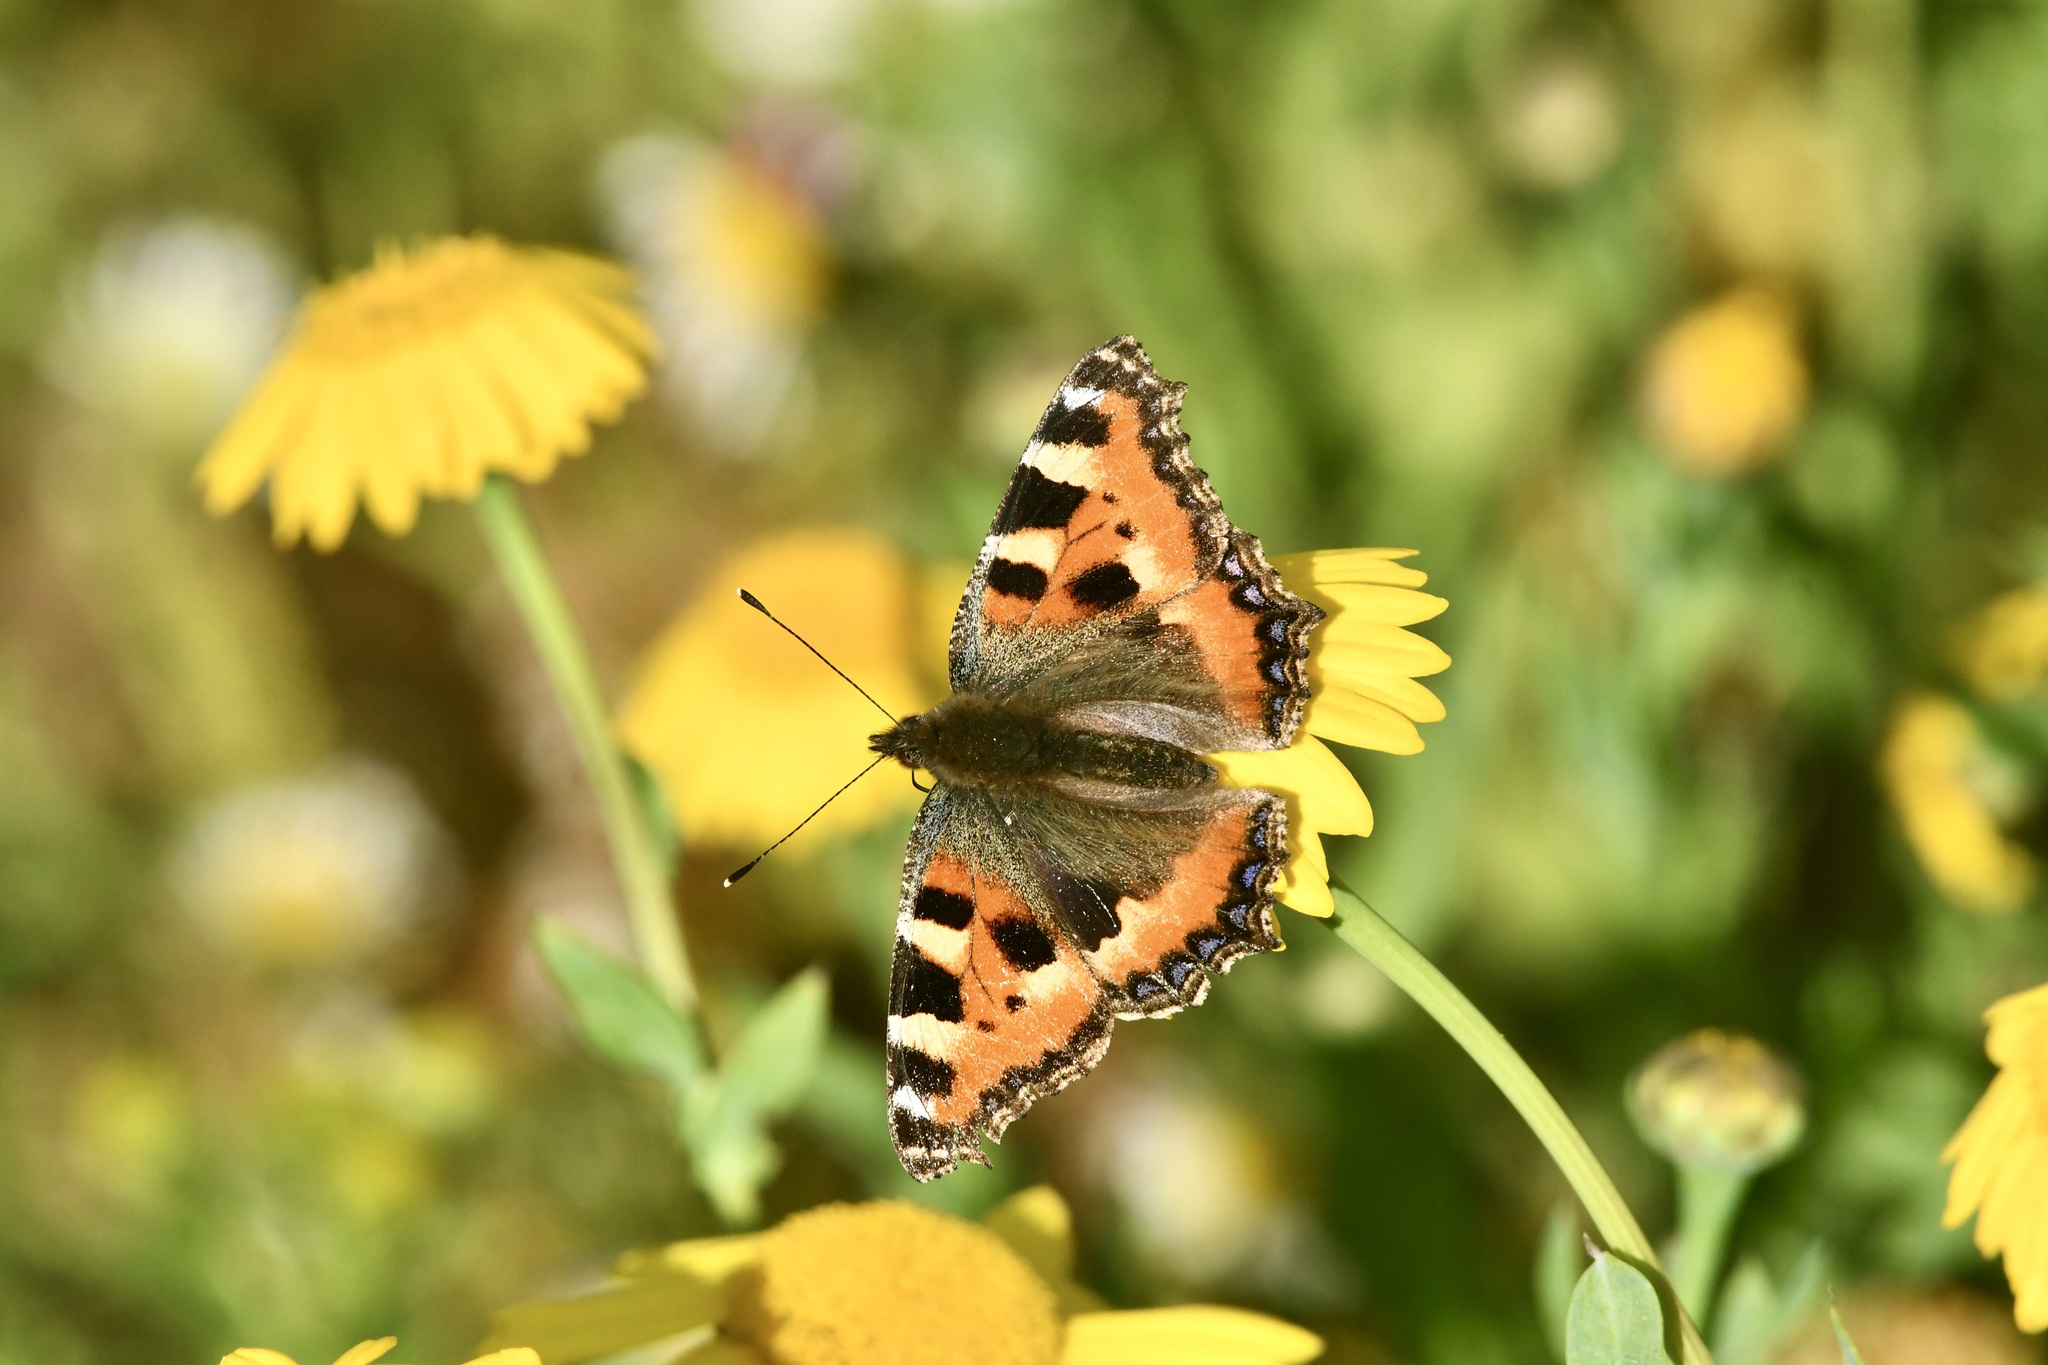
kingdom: Animalia
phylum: Arthropoda
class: Insecta
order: Lepidoptera
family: Nymphalidae
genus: Aglais
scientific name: Aglais urticae
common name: Small tortoiseshell
